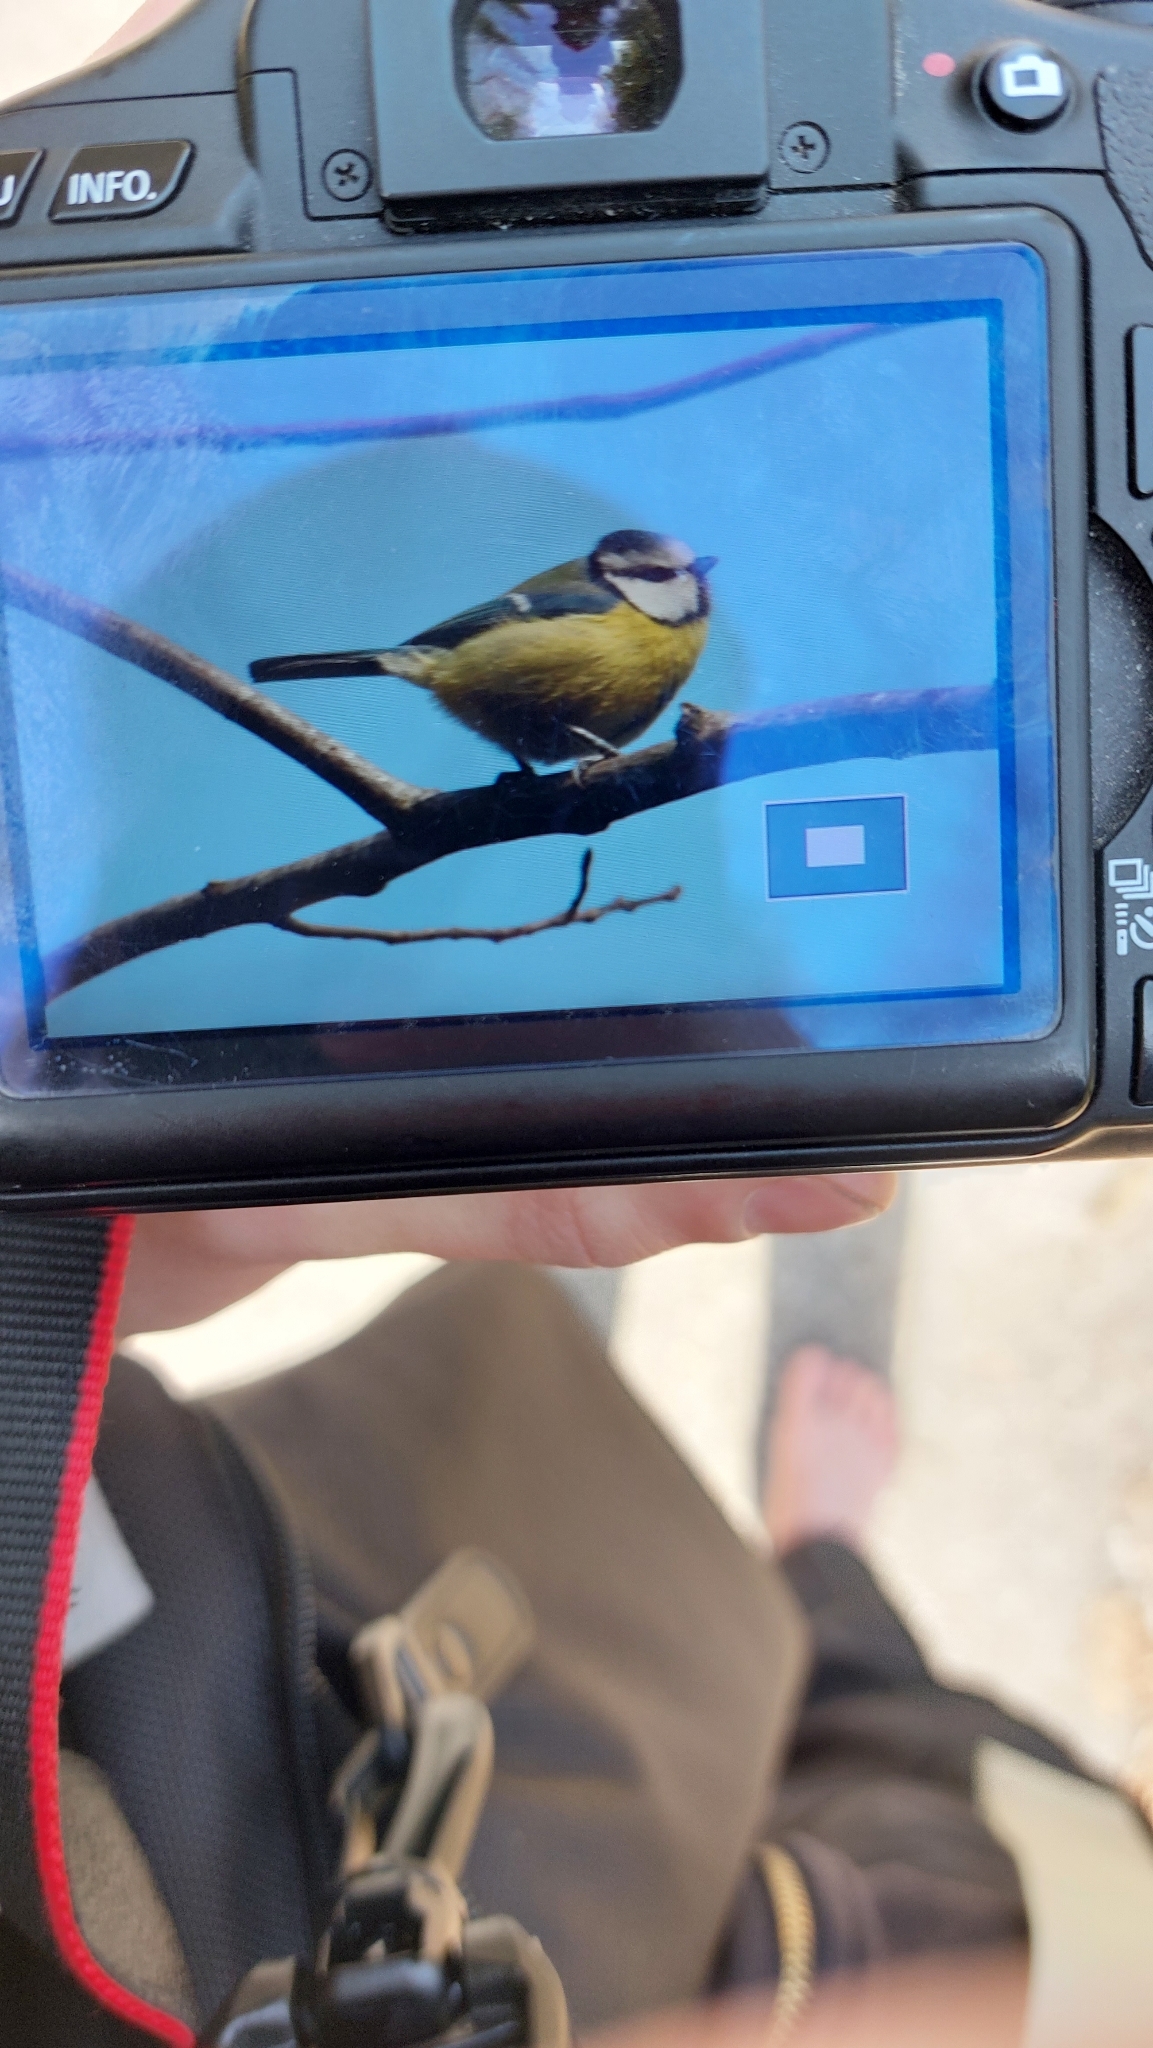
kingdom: Animalia
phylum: Chordata
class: Aves
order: Passeriformes
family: Paridae
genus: Cyanistes
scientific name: Cyanistes caeruleus
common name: Eurasian blue tit
